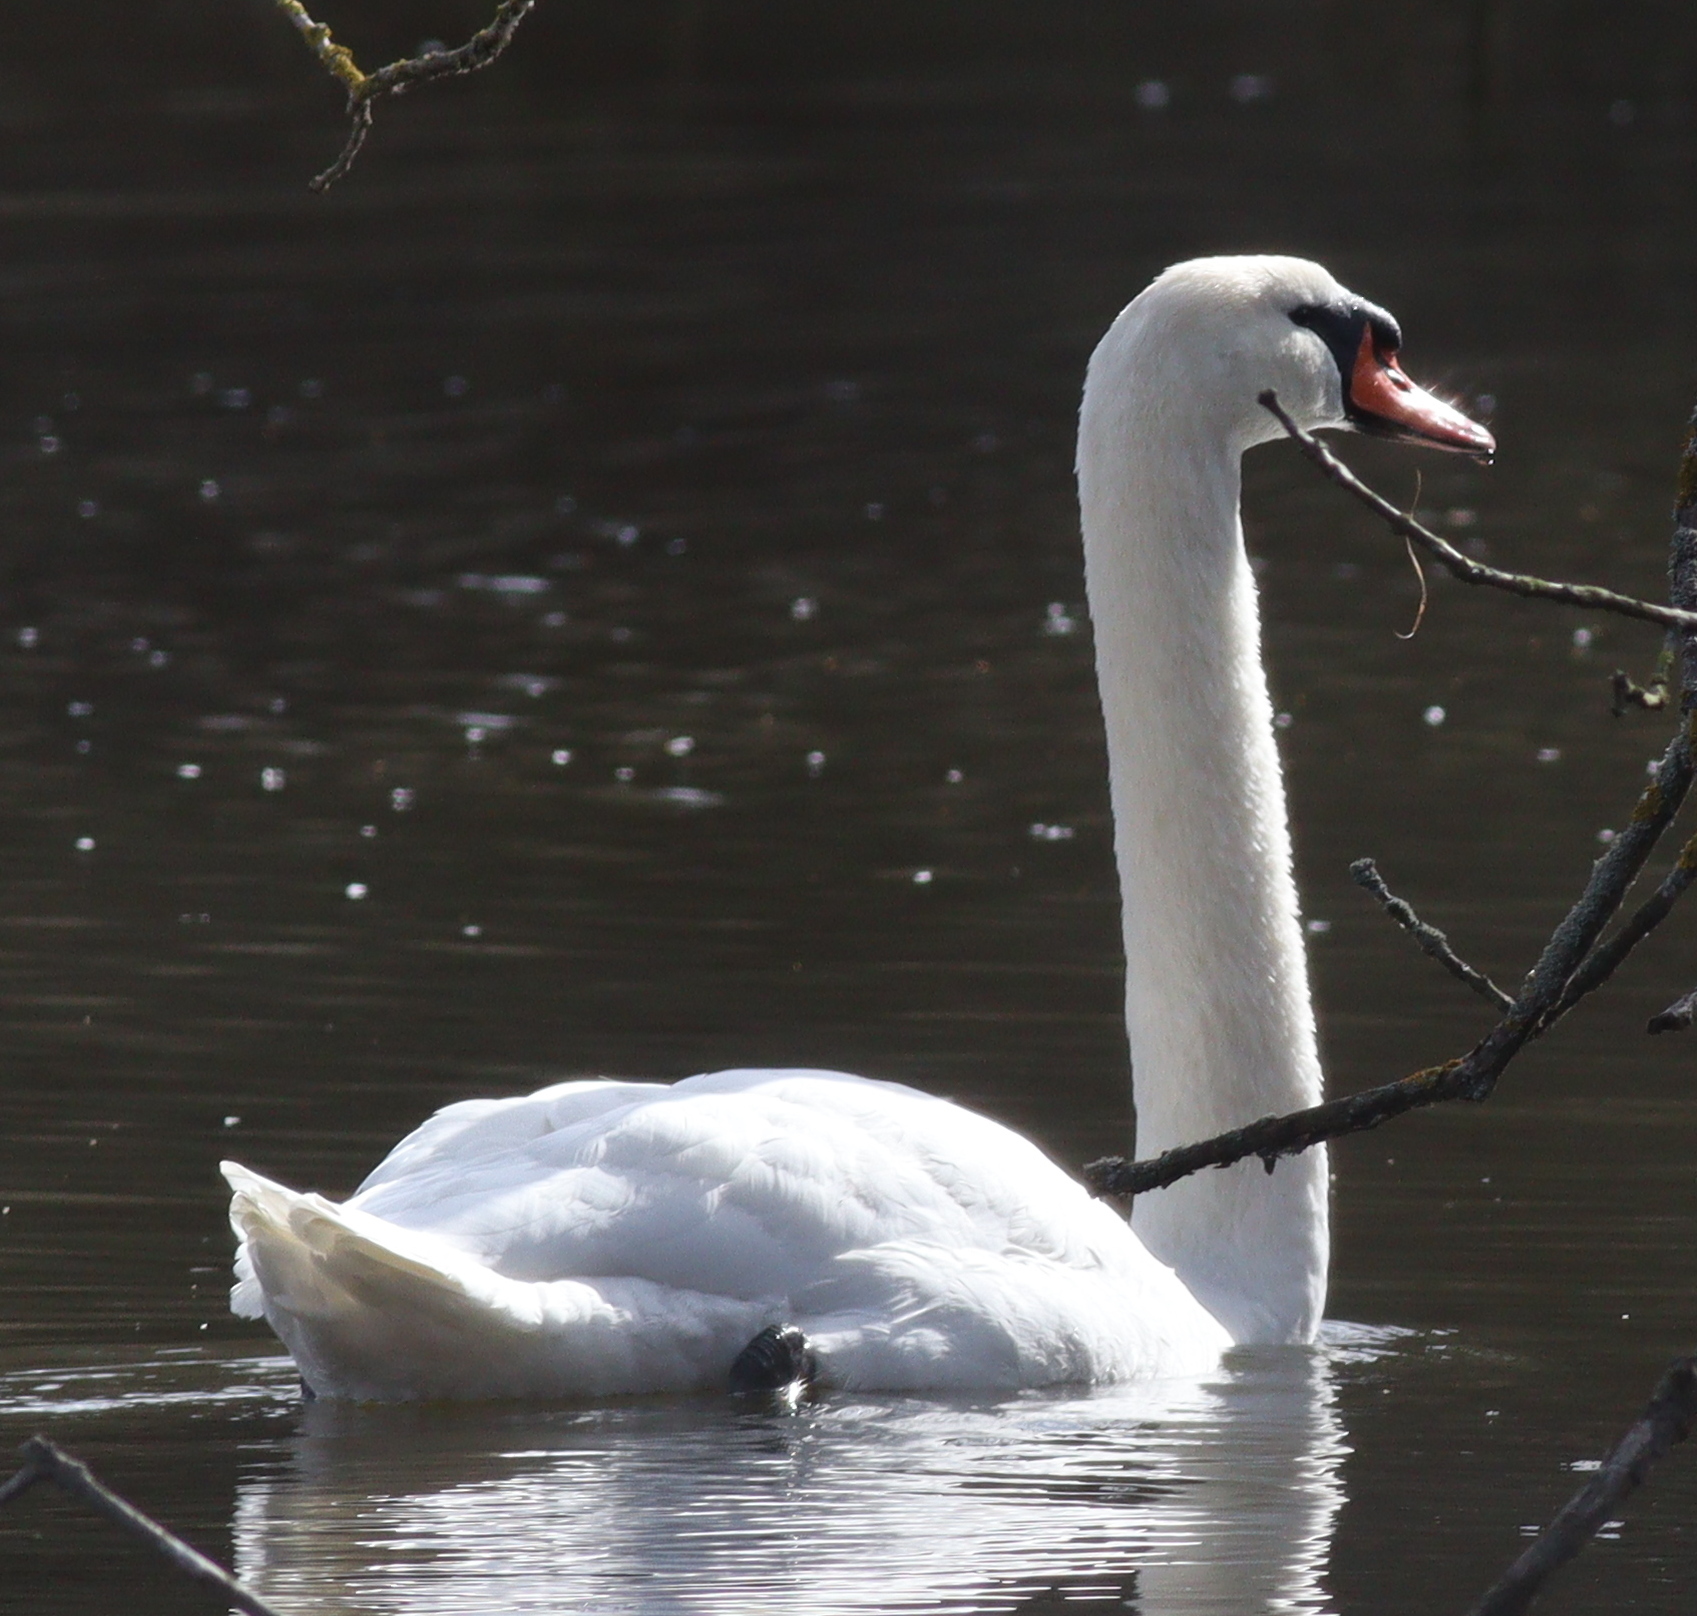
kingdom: Animalia
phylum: Chordata
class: Aves
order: Anseriformes
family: Anatidae
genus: Cygnus
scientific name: Cygnus olor
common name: Mute swan
